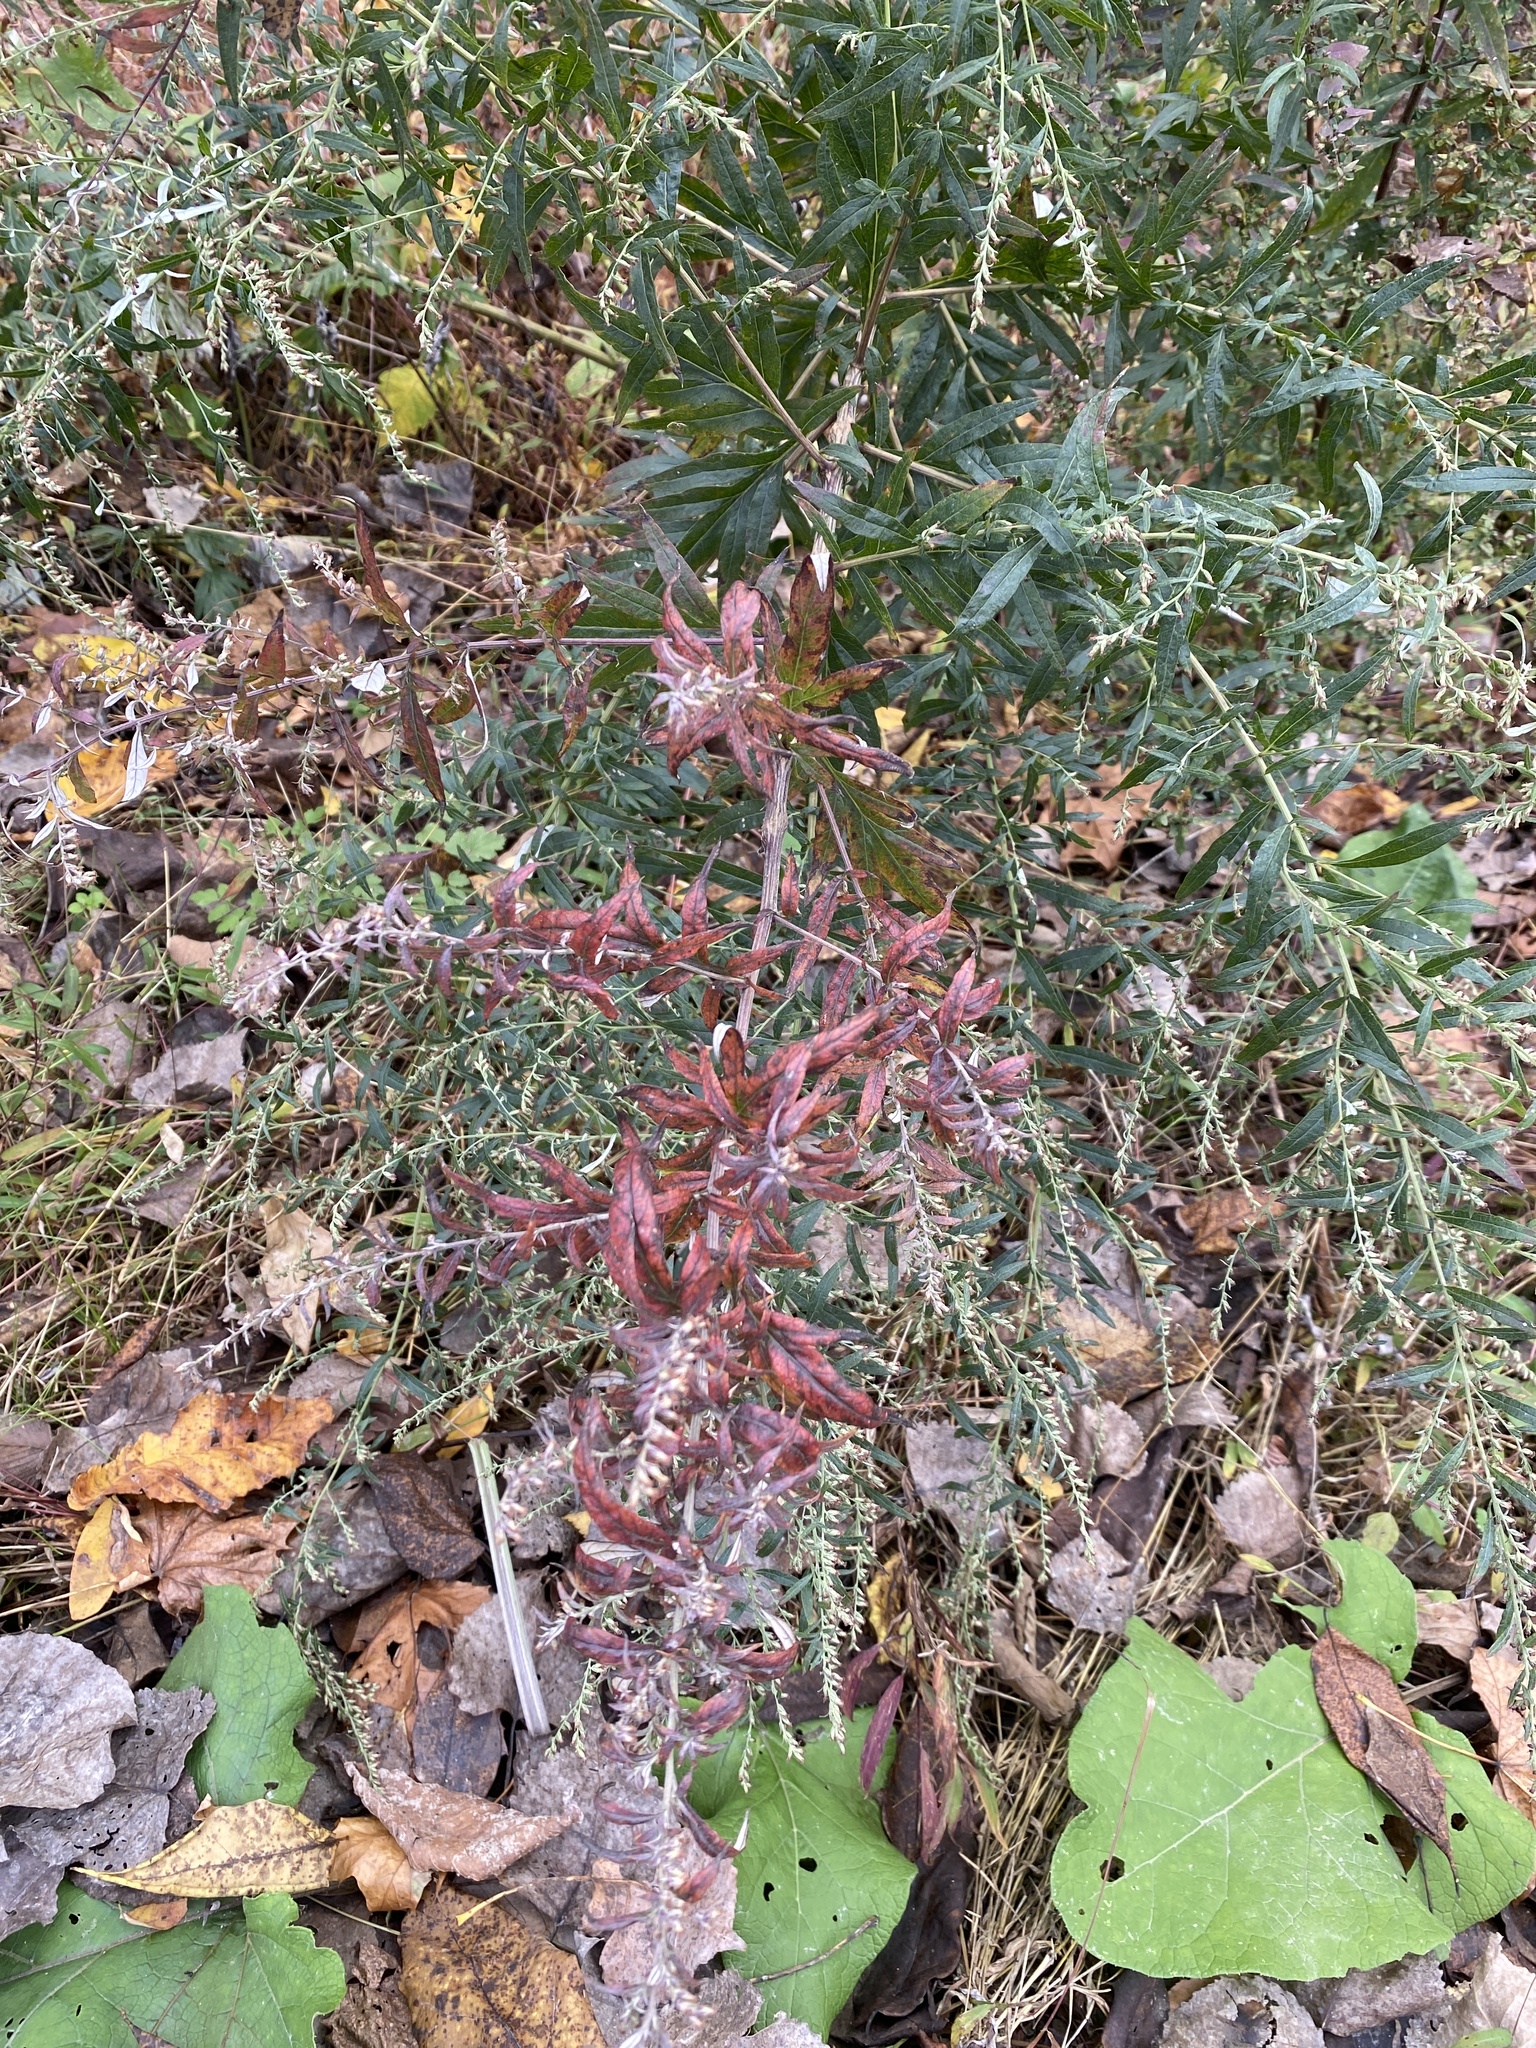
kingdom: Plantae
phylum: Tracheophyta
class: Magnoliopsida
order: Asterales
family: Asteraceae
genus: Artemisia
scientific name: Artemisia vulgaris
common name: Mugwort
